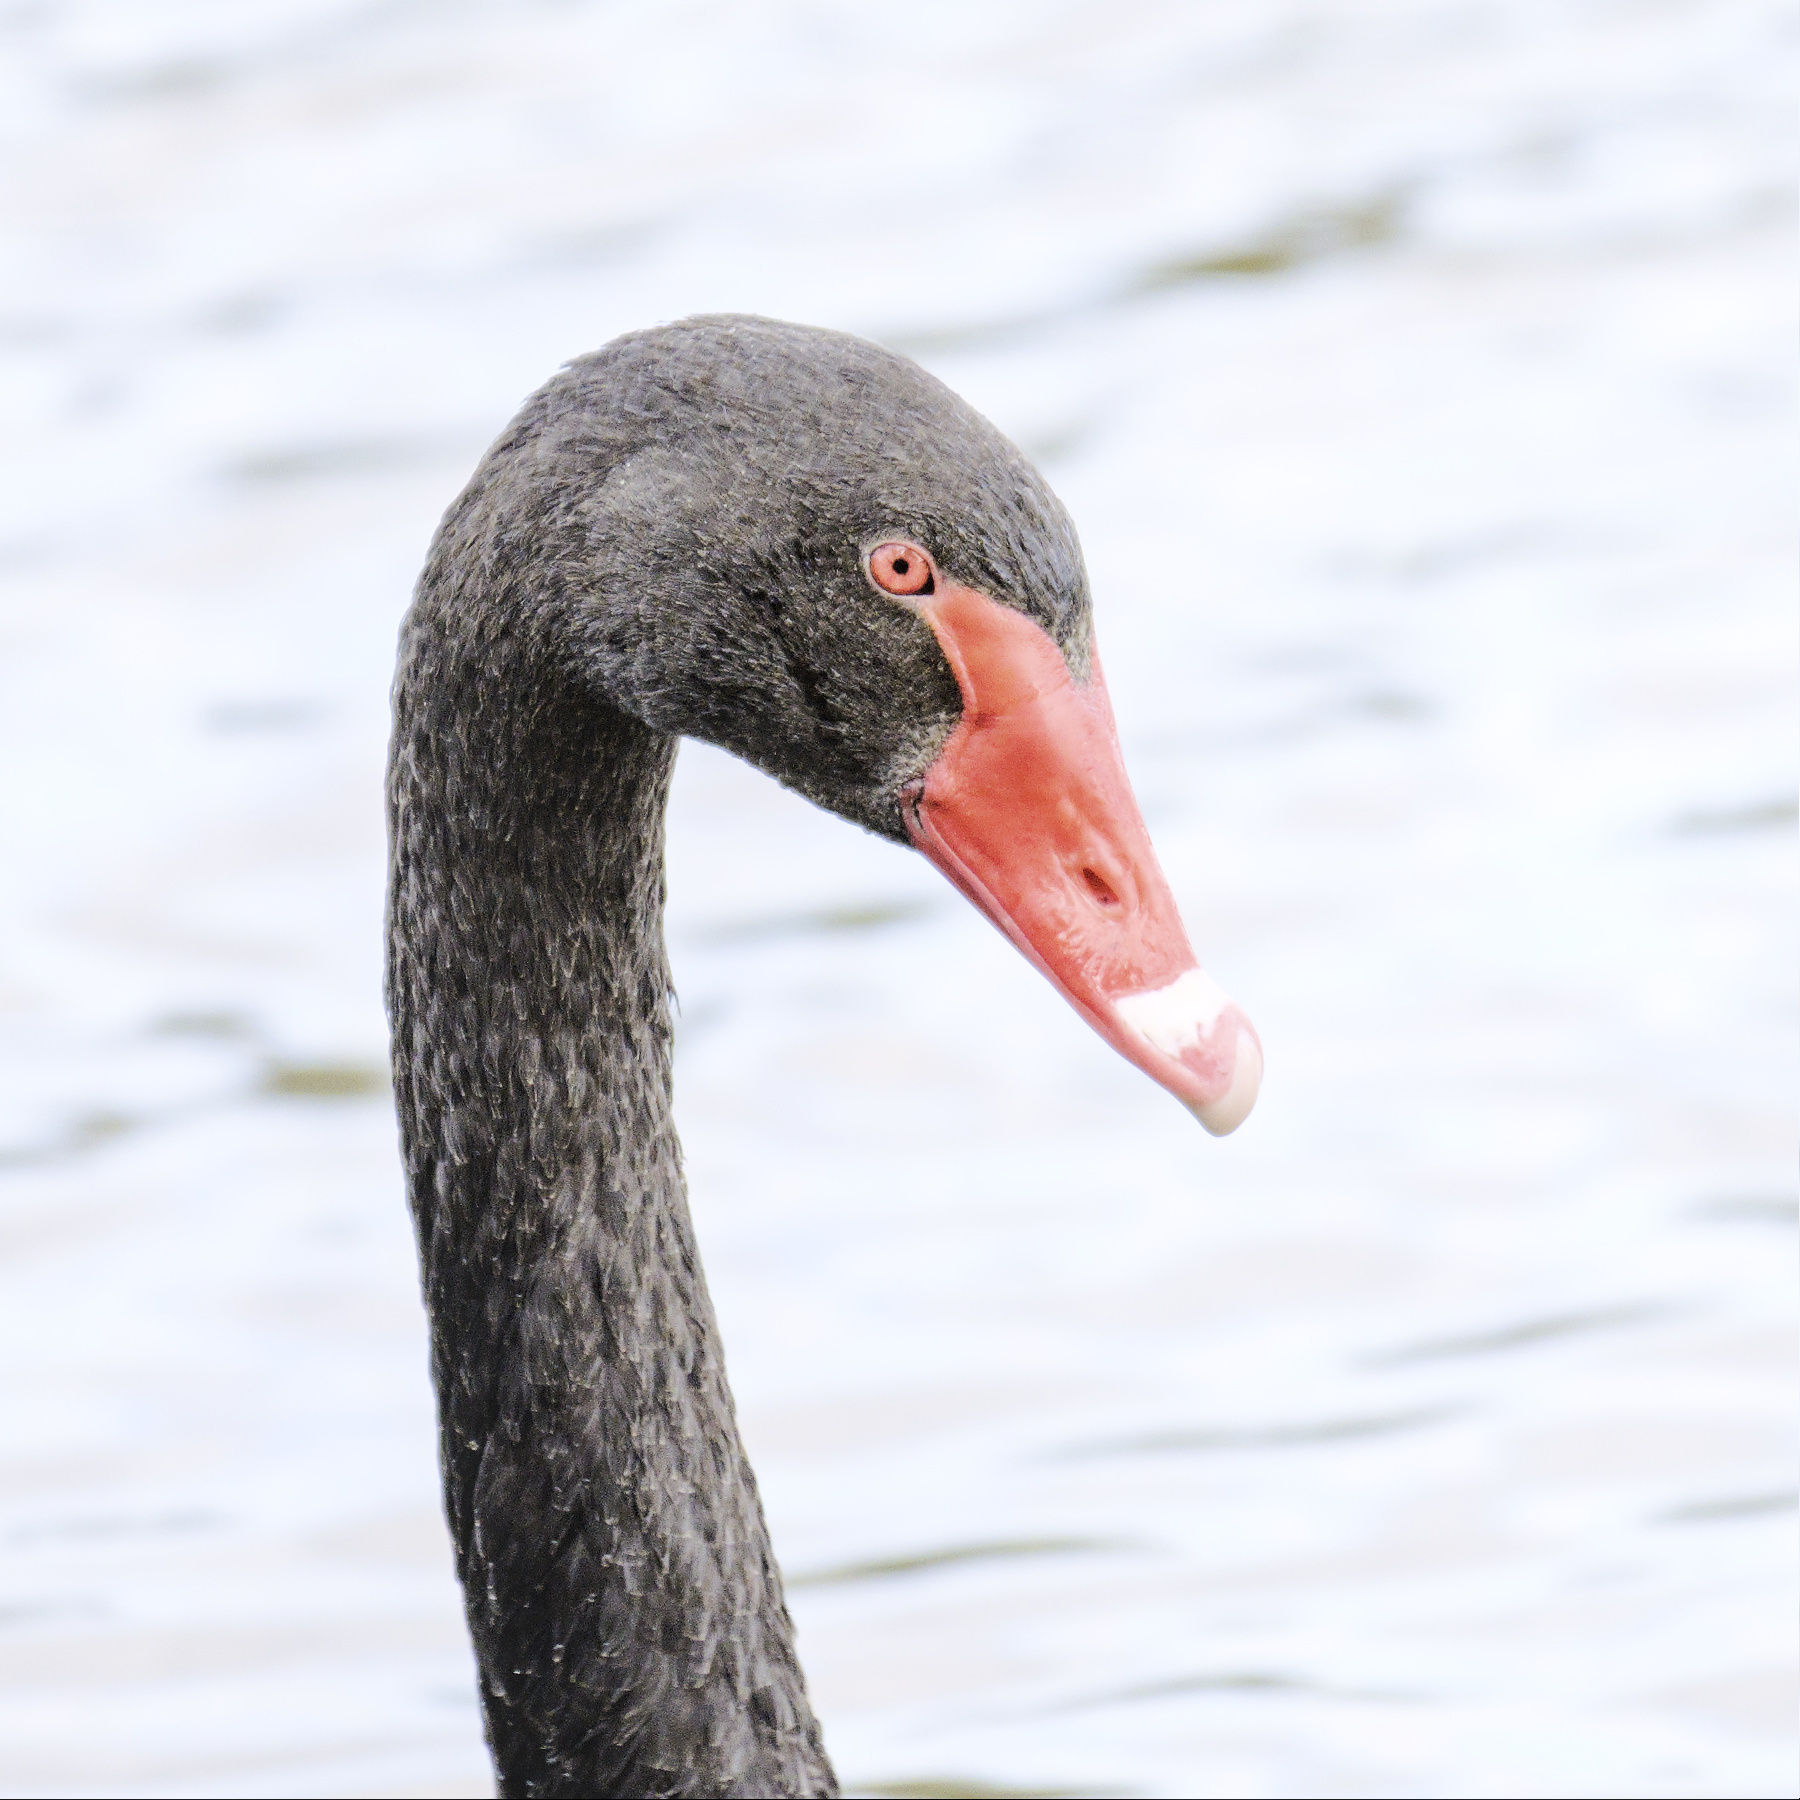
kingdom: Animalia
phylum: Chordata
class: Aves
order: Anseriformes
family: Anatidae
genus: Cygnus
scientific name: Cygnus atratus
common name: Black swan
